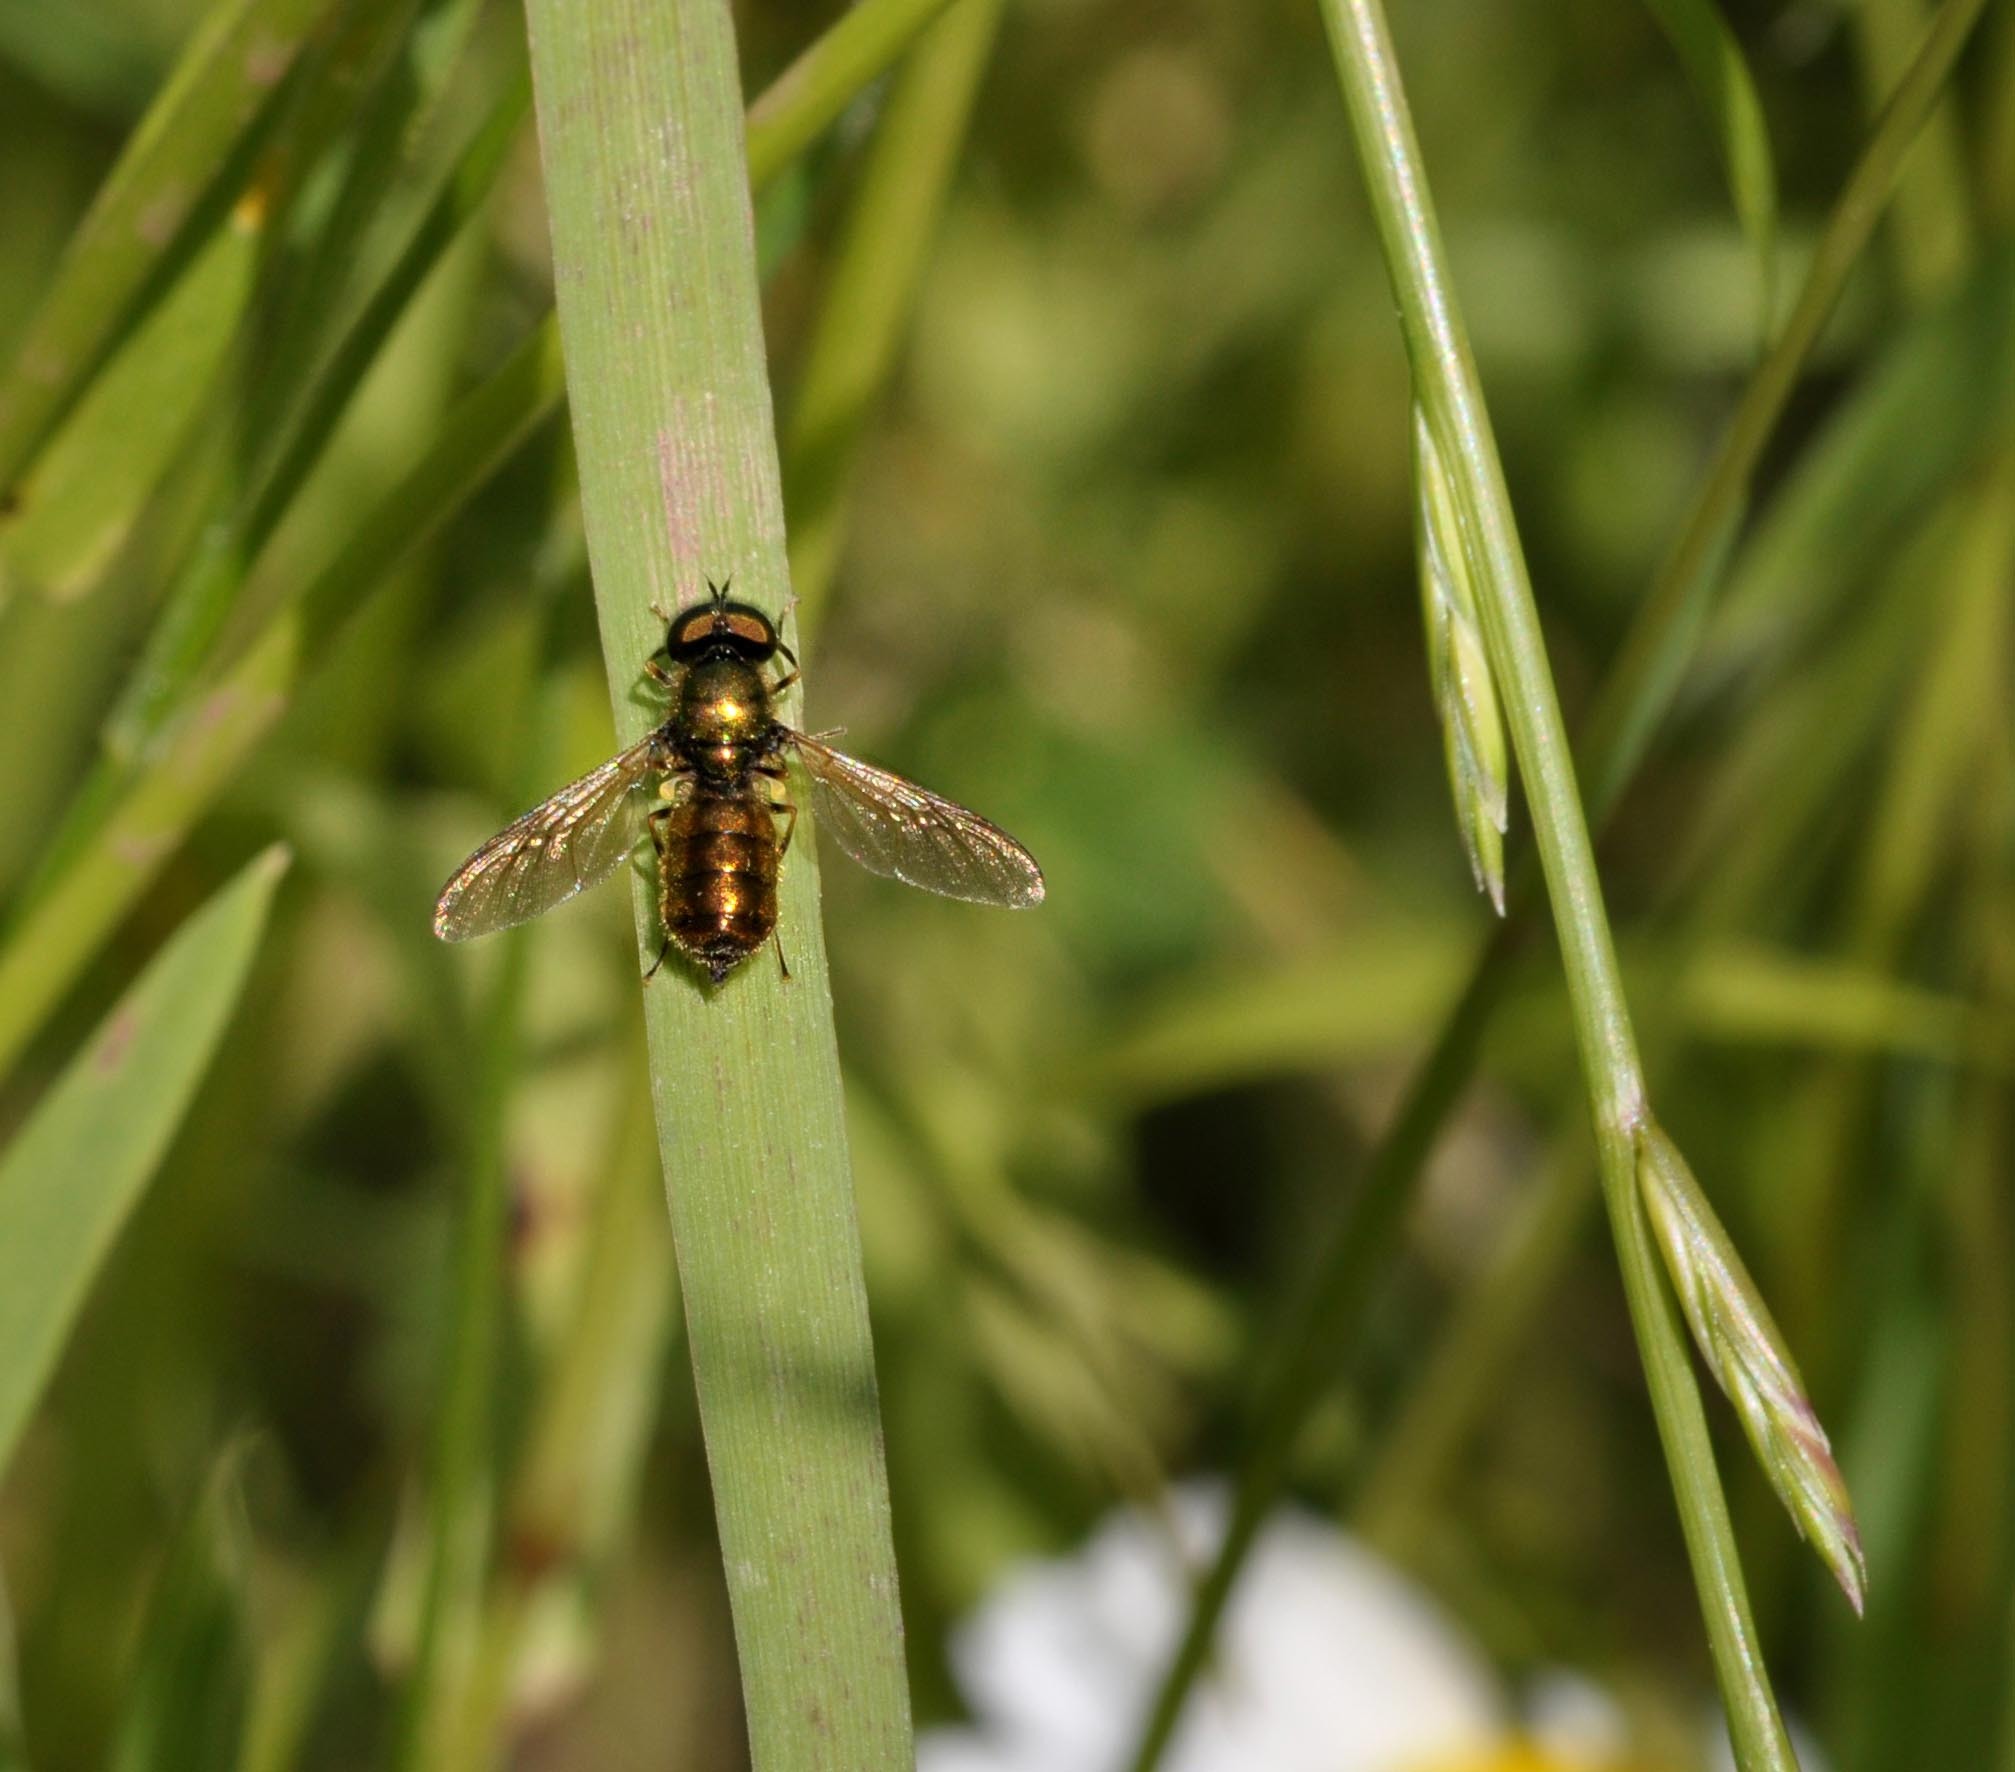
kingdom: Animalia
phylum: Arthropoda
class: Insecta
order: Diptera
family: Stratiomyidae
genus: Chloromyia
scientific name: Chloromyia formosa
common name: Soldier fly
